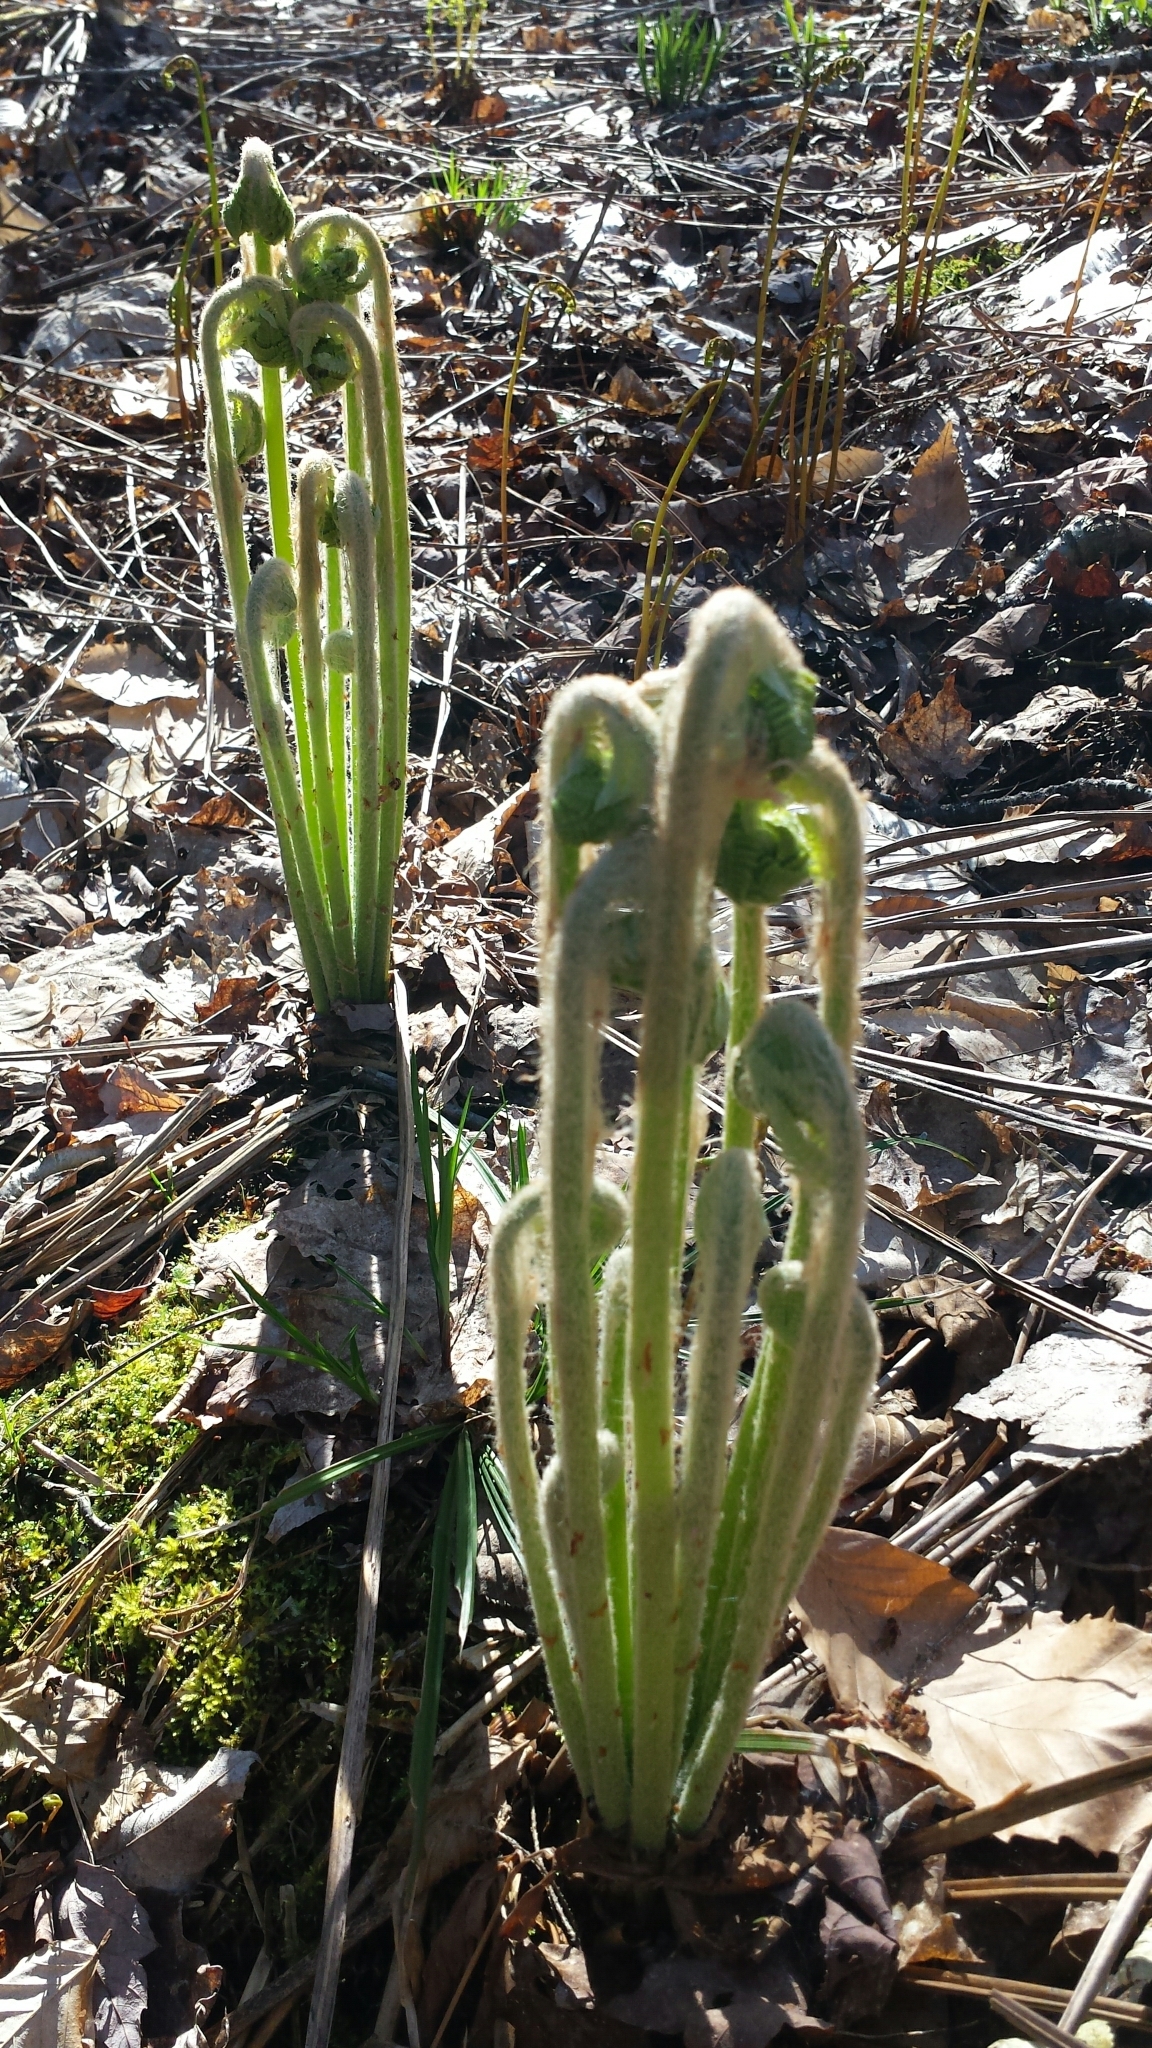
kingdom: Plantae
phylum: Tracheophyta
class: Polypodiopsida
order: Osmundales
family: Osmundaceae
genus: Claytosmunda
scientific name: Claytosmunda claytoniana
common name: Clayton's fern
